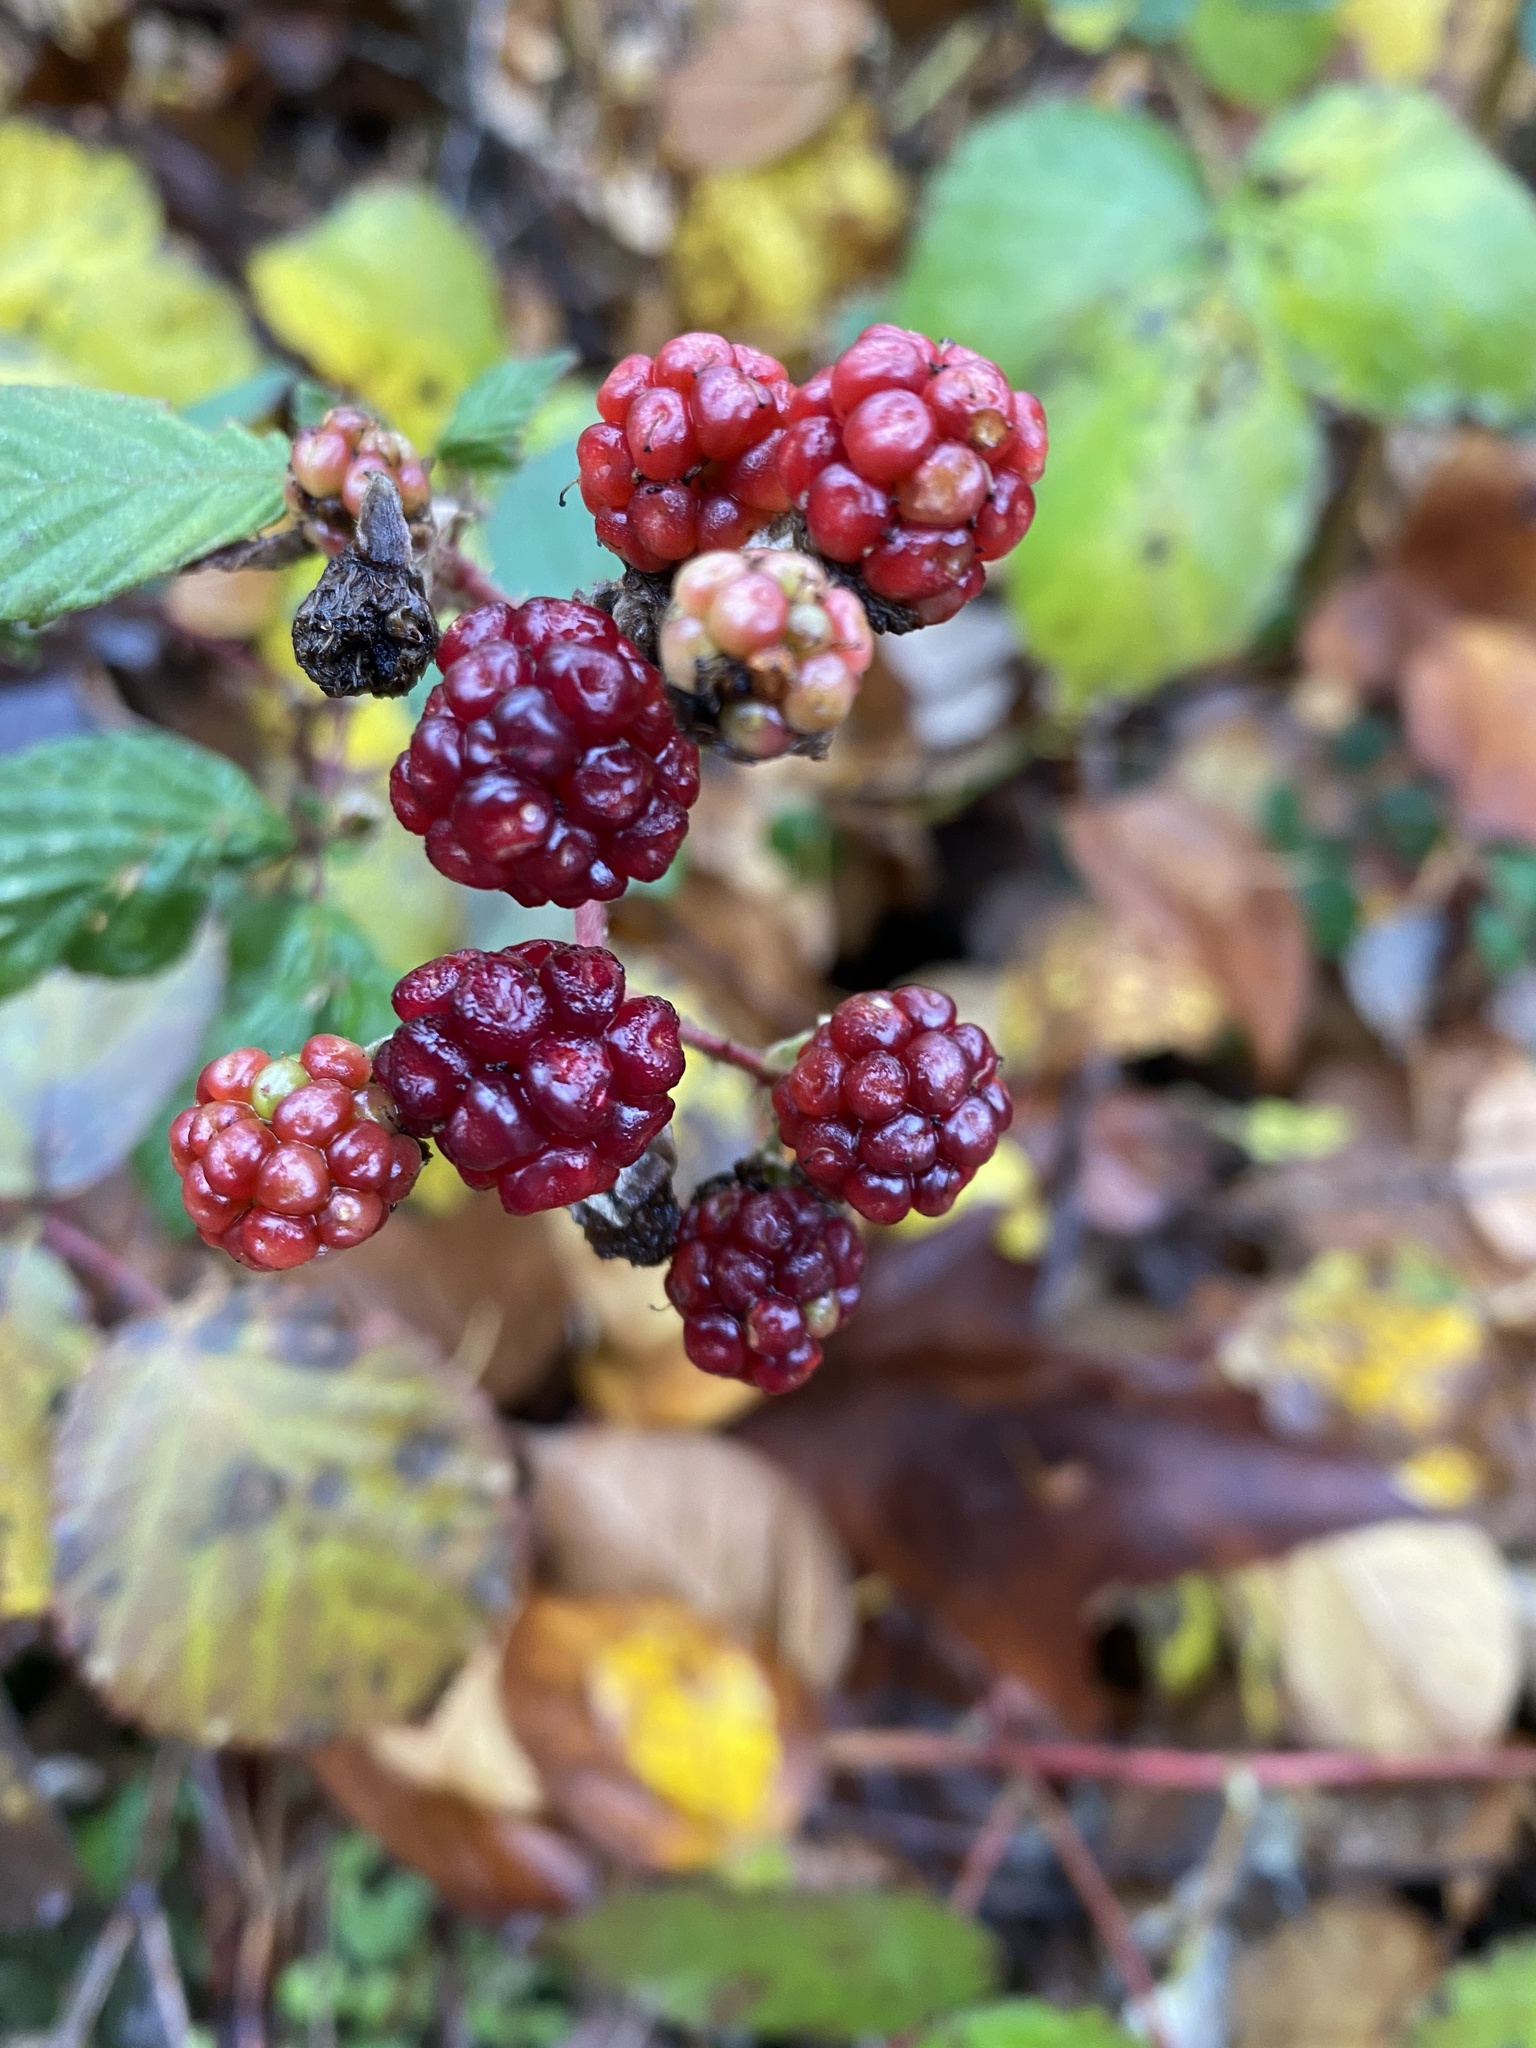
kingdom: Plantae
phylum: Tracheophyta
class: Magnoliopsida
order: Rosales
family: Rosaceae
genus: Rubus
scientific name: Rubus armeniacus
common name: Himalayan blackberry
